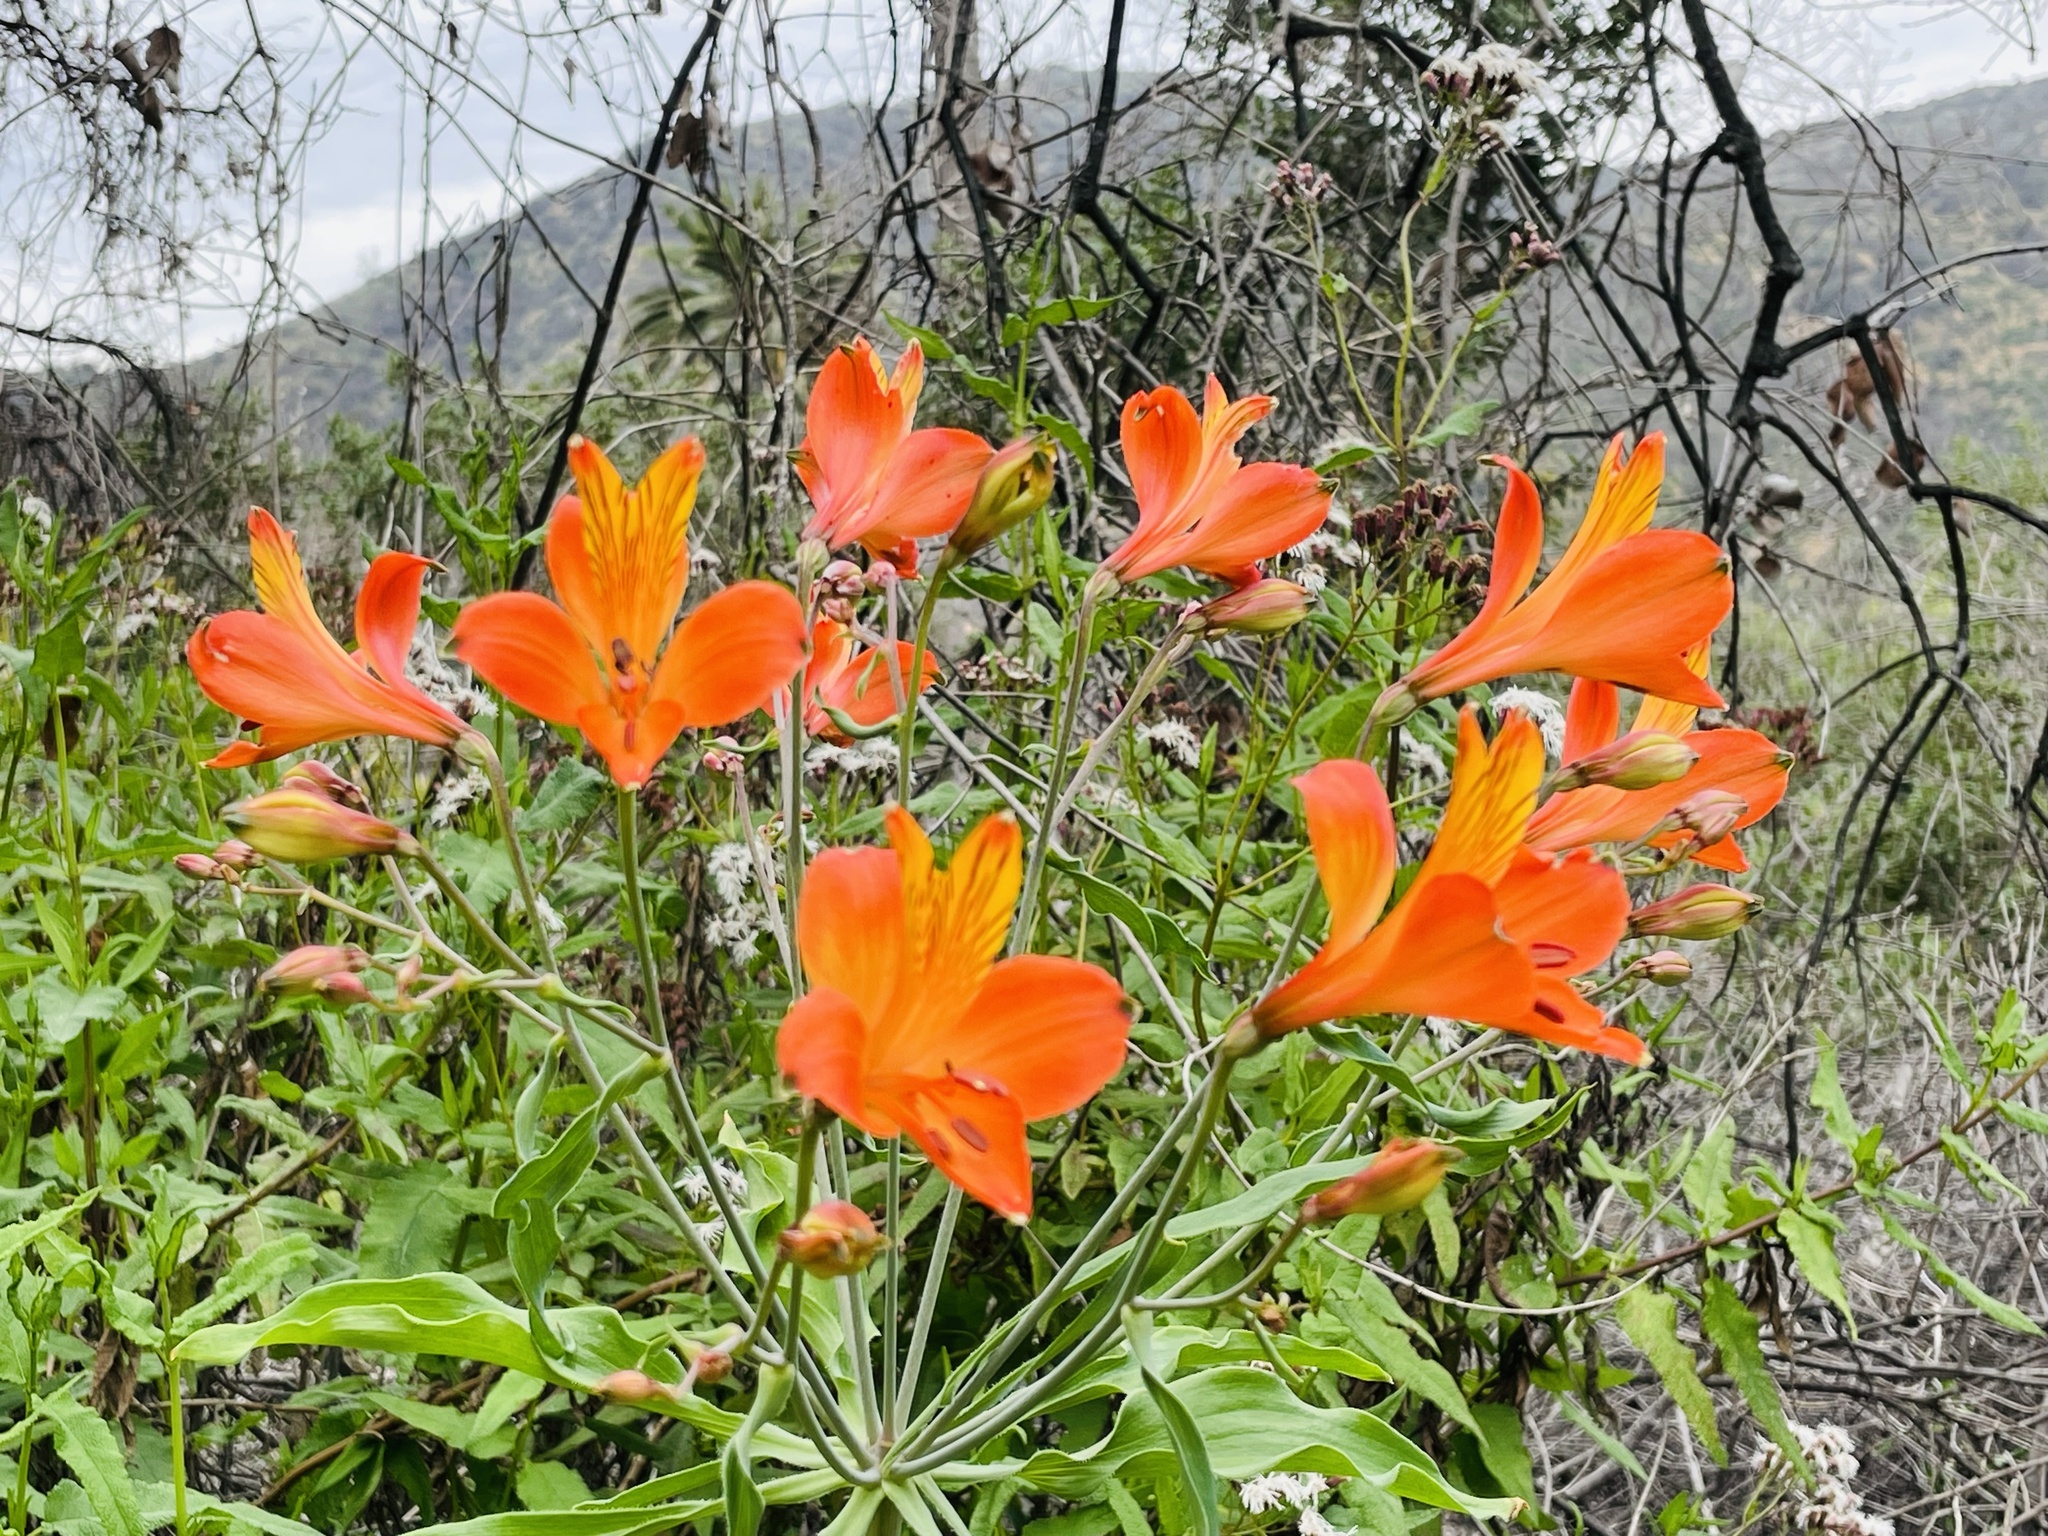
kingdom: Plantae
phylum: Tracheophyta
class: Liliopsida
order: Liliales
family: Alstroemeriaceae
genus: Alstroemeria
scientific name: Alstroemeria ligtu
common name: St. martin's-flower
